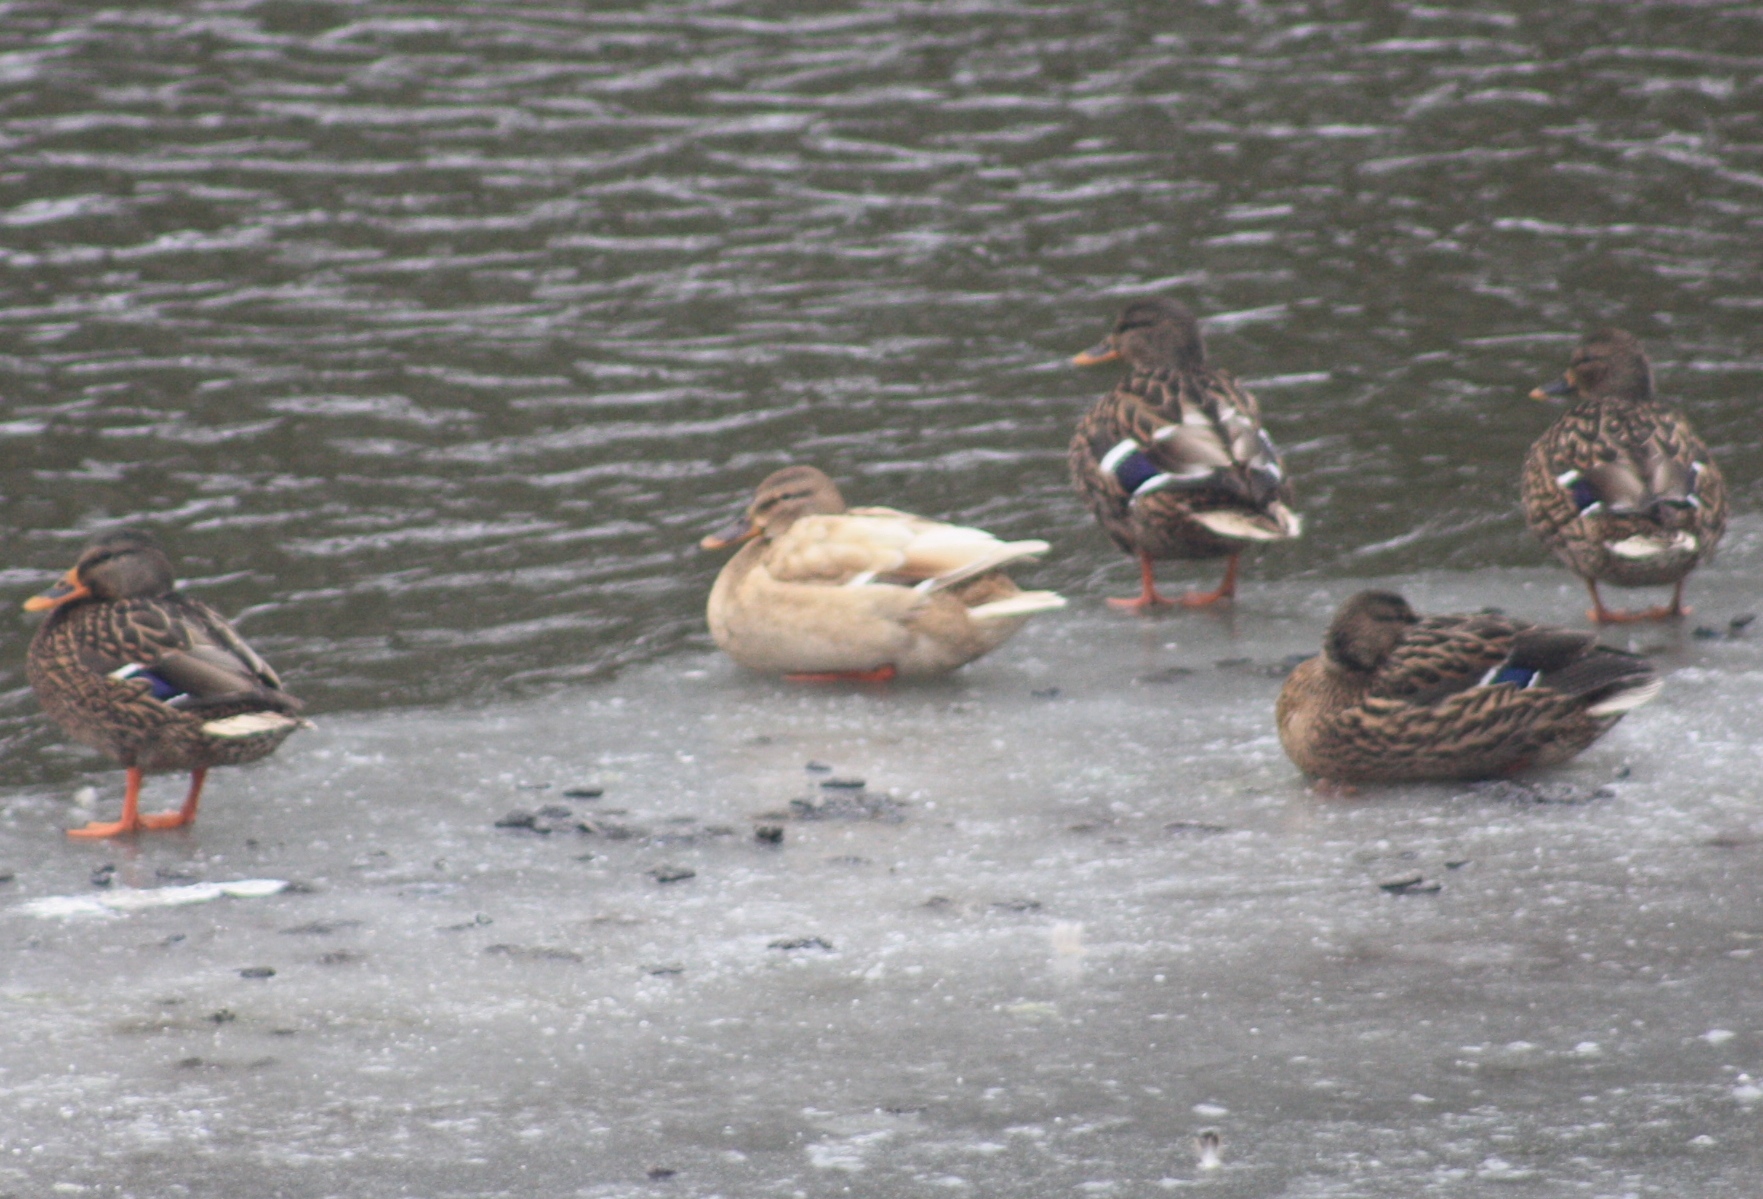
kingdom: Animalia
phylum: Chordata
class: Aves
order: Anseriformes
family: Anatidae
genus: Anas
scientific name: Anas platyrhynchos
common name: Mallard
